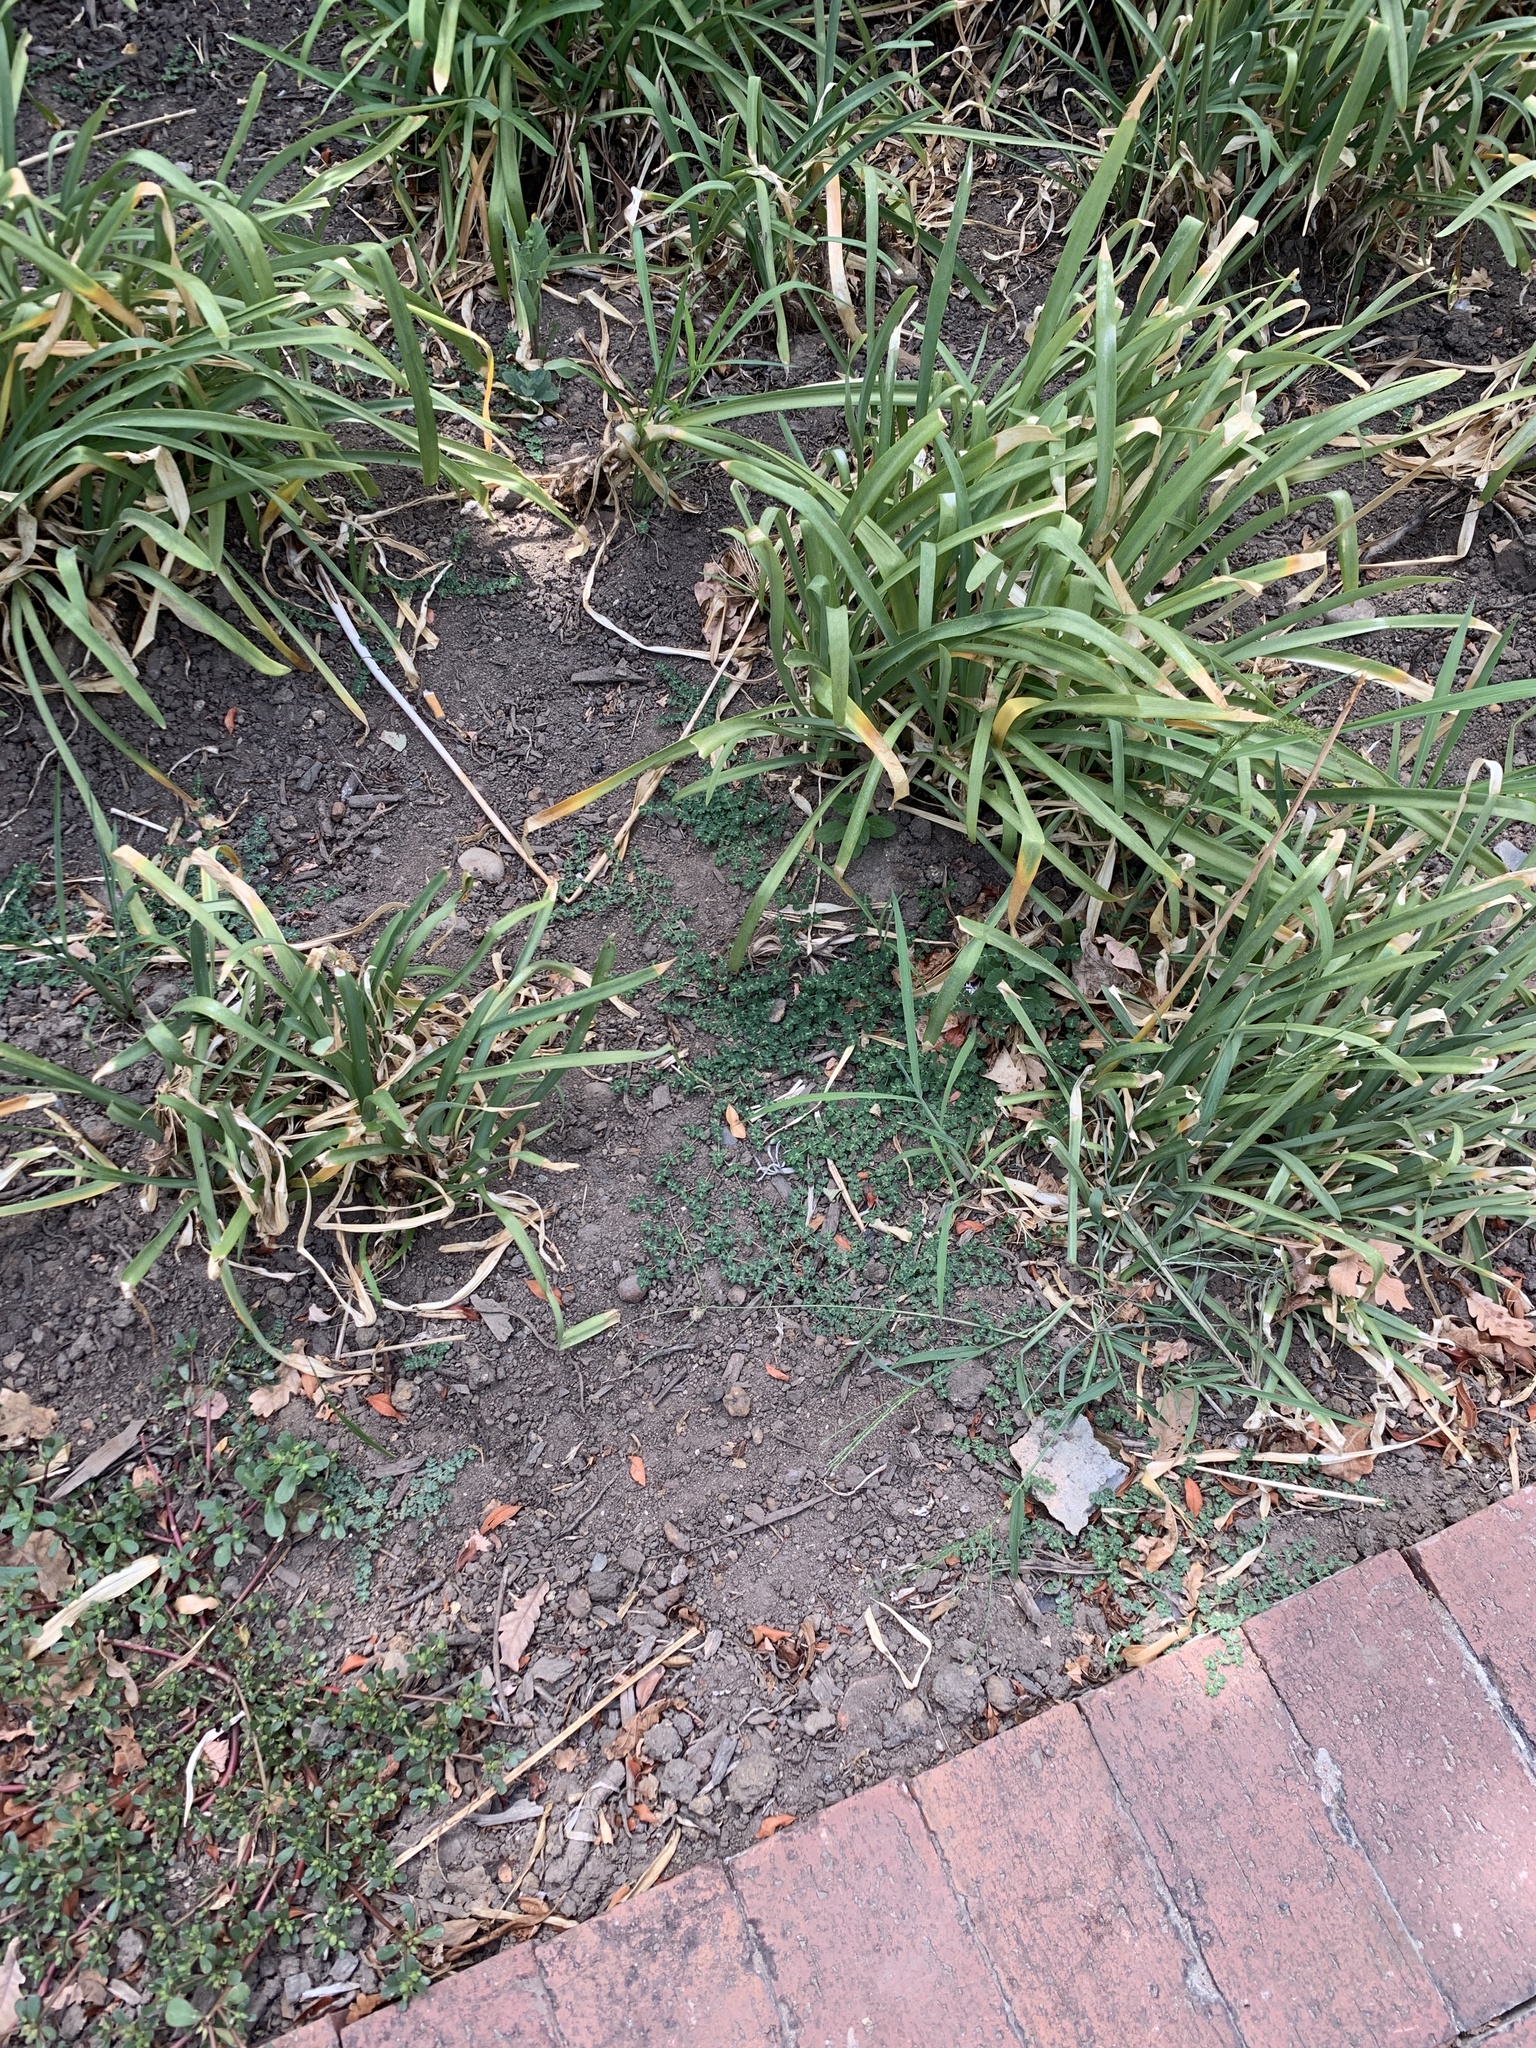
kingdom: Plantae
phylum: Tracheophyta
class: Magnoliopsida
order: Malpighiales
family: Euphorbiaceae
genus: Euphorbia
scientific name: Euphorbia serpens
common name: Matted sandmat
